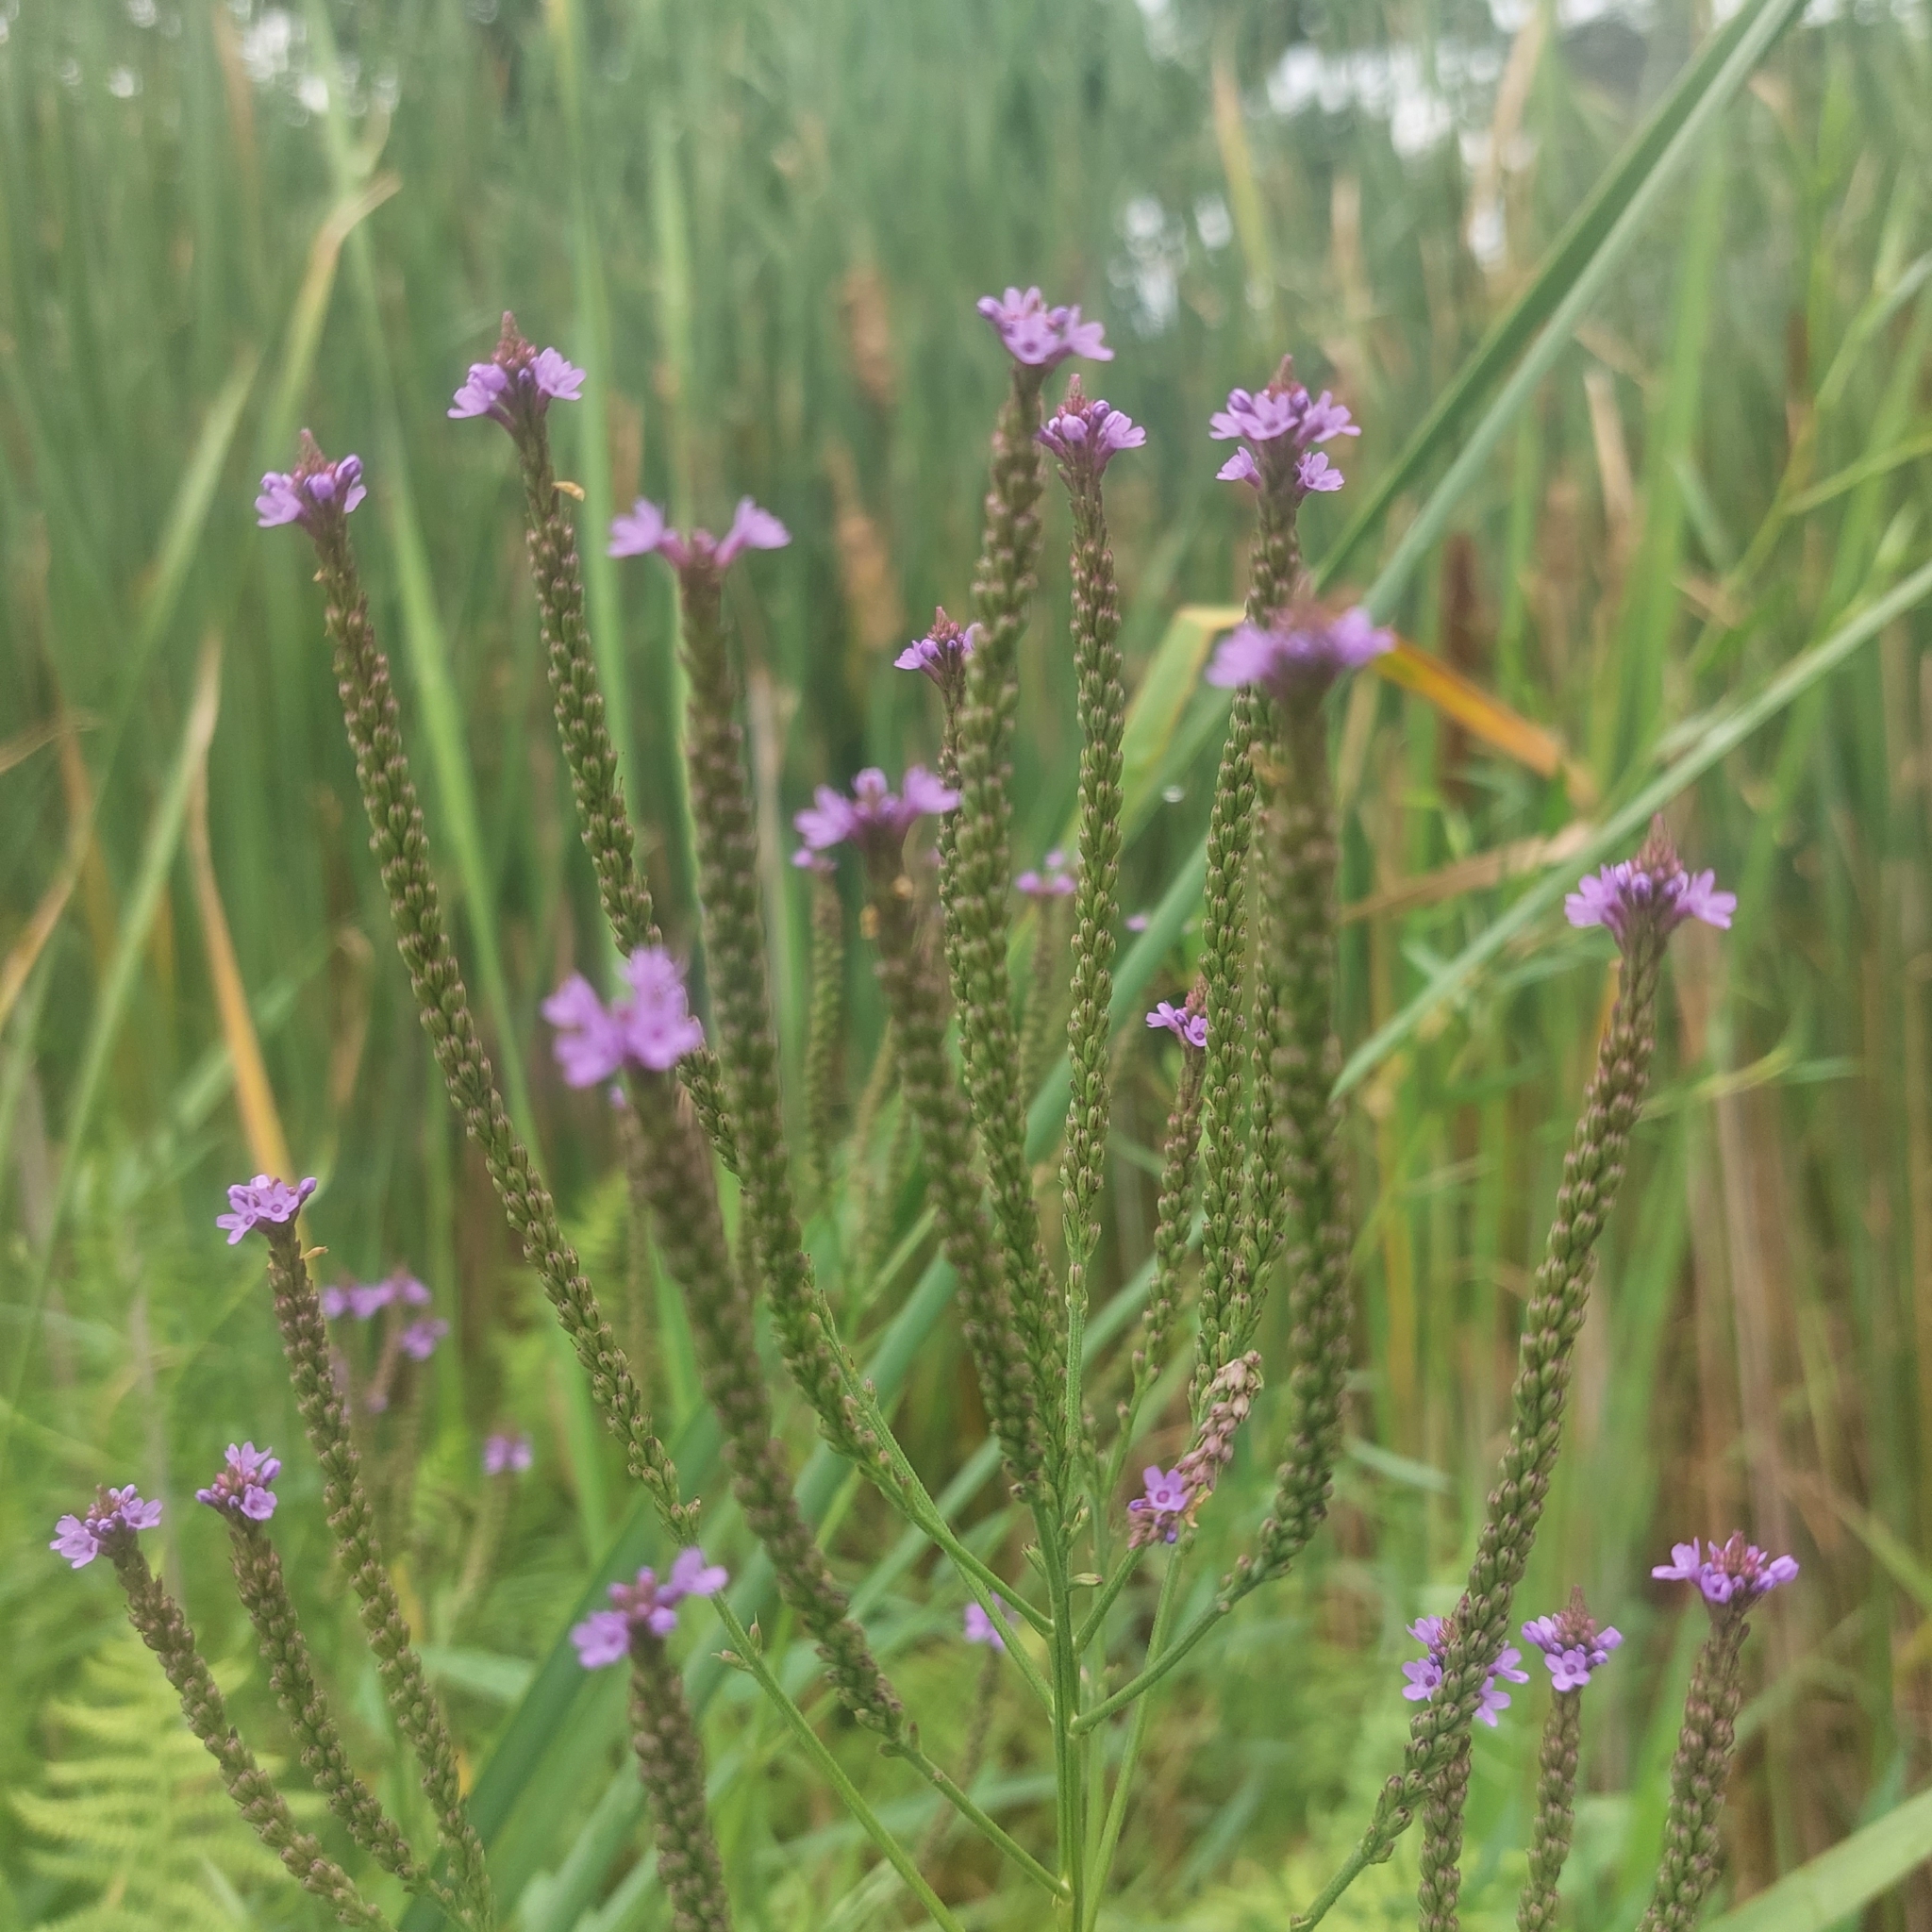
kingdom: Plantae
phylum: Tracheophyta
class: Magnoliopsida
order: Lamiales
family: Verbenaceae
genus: Verbena
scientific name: Verbena hastata
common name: American blue vervain
